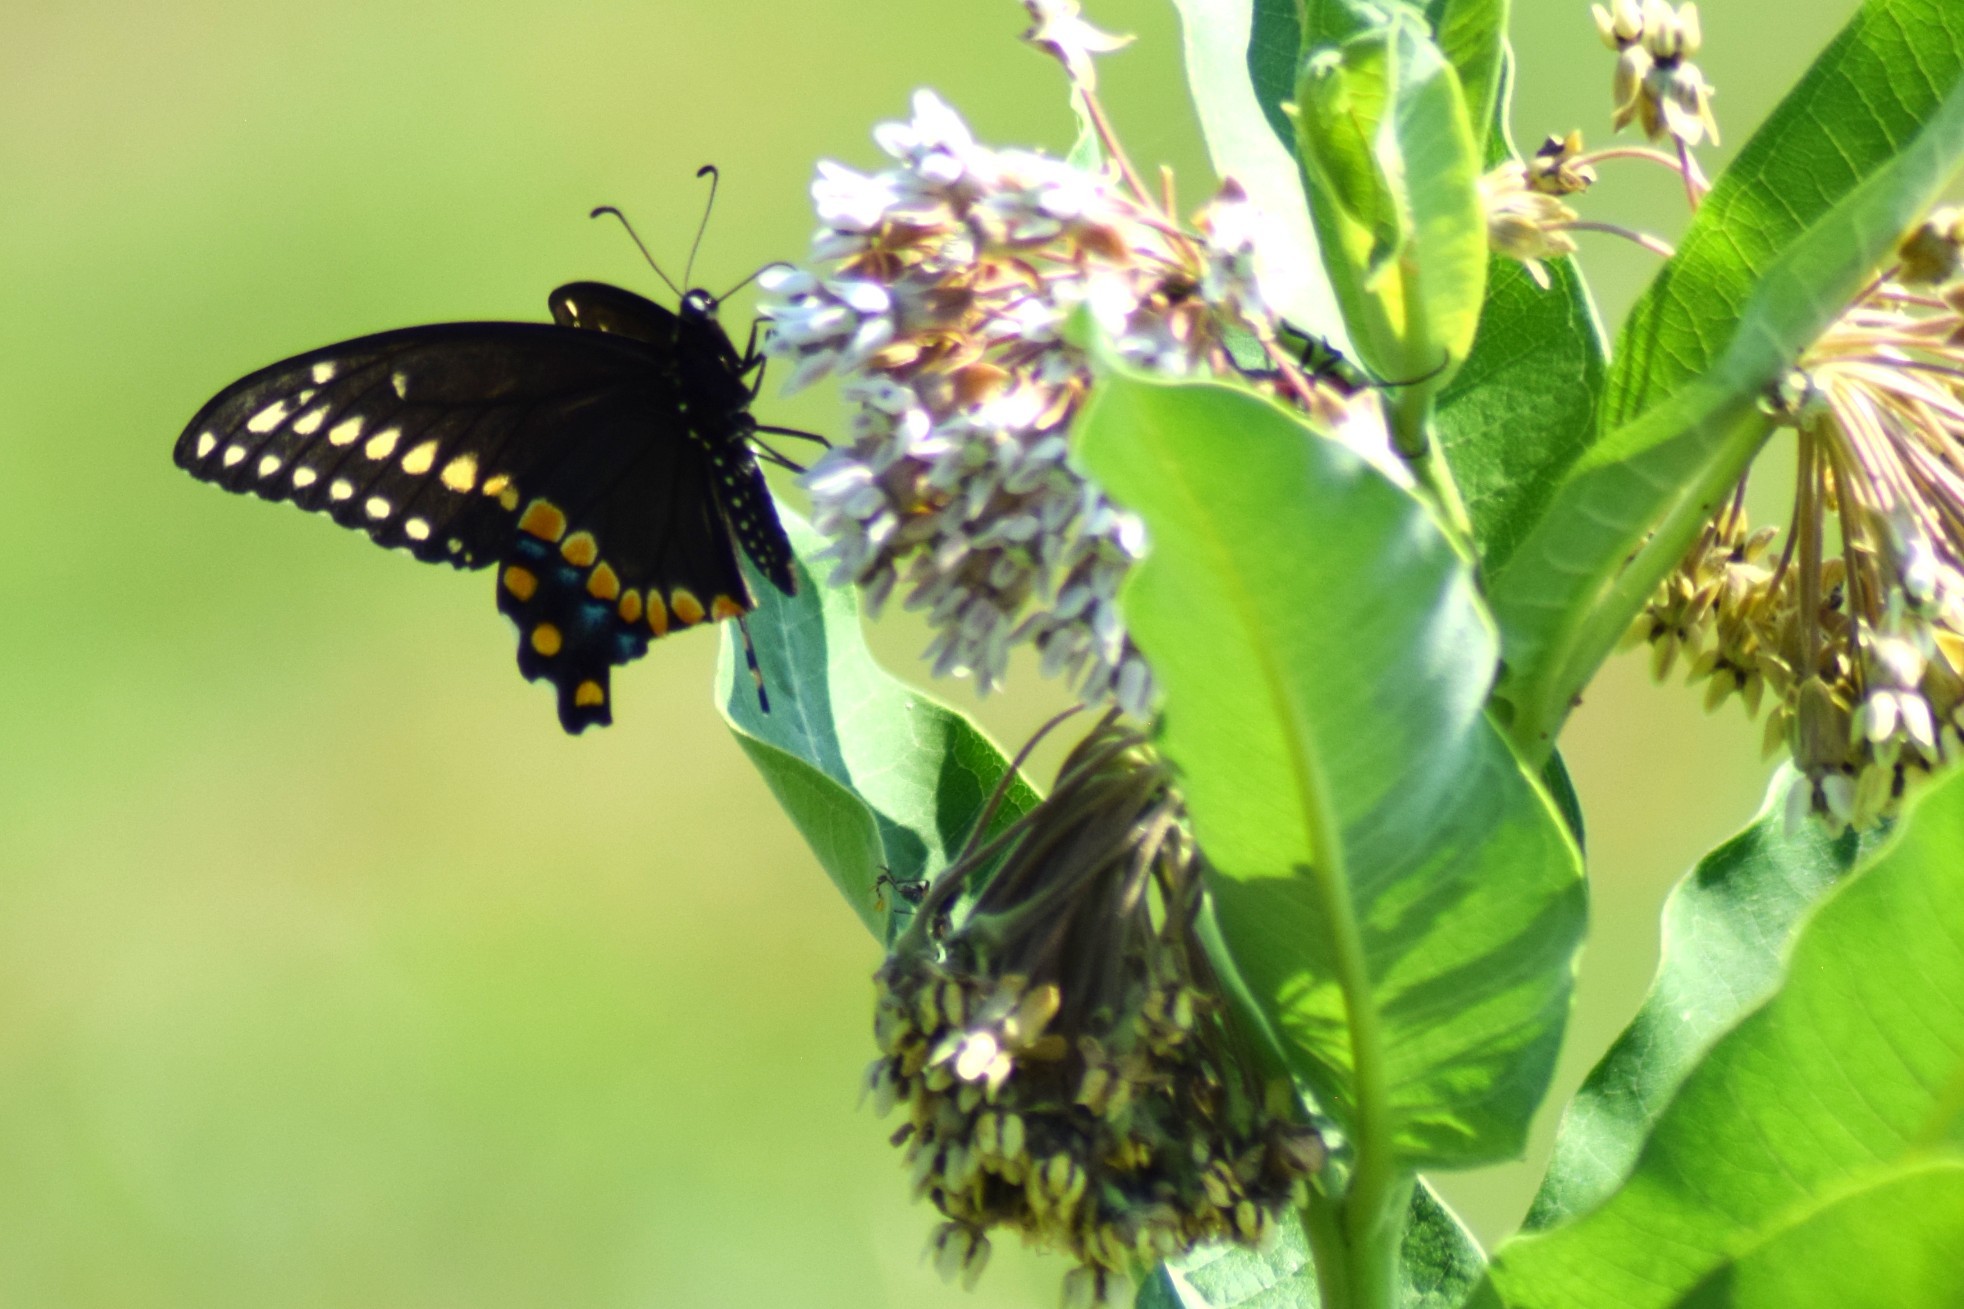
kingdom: Animalia
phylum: Arthropoda
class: Insecta
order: Lepidoptera
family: Papilionidae
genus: Papilio
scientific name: Papilio polyxenes
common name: Black swallowtail
